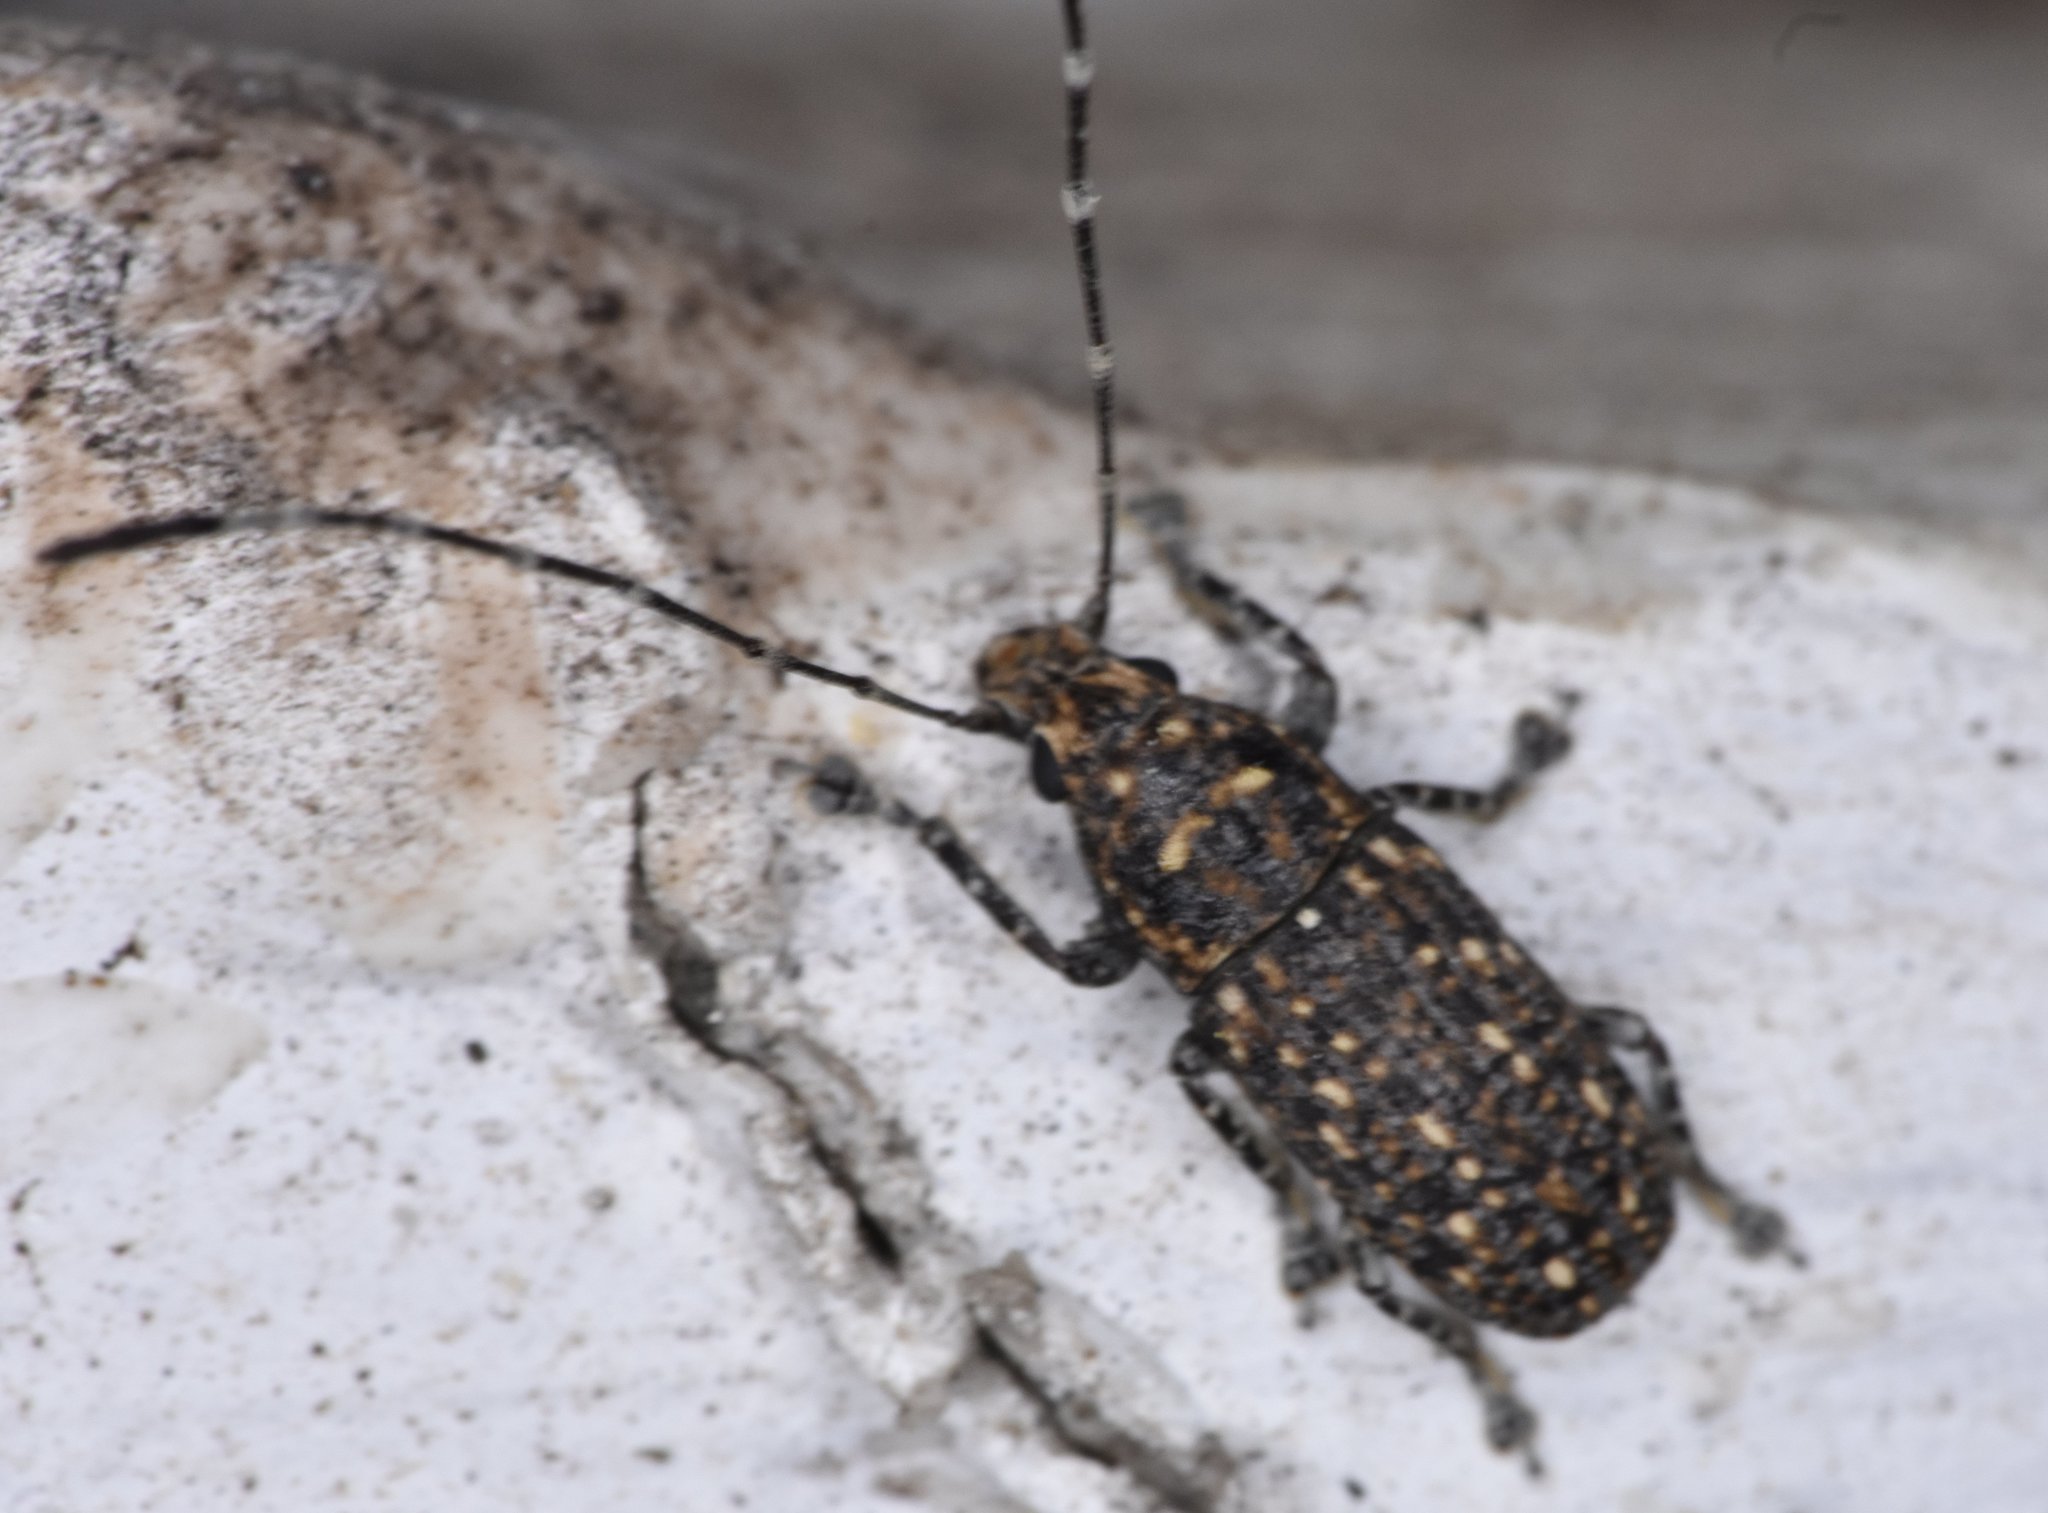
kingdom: Animalia
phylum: Arthropoda
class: Insecta
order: Coleoptera
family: Anthribidae
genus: Phoenicobiella
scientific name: Phoenicobiella chamaeropis
